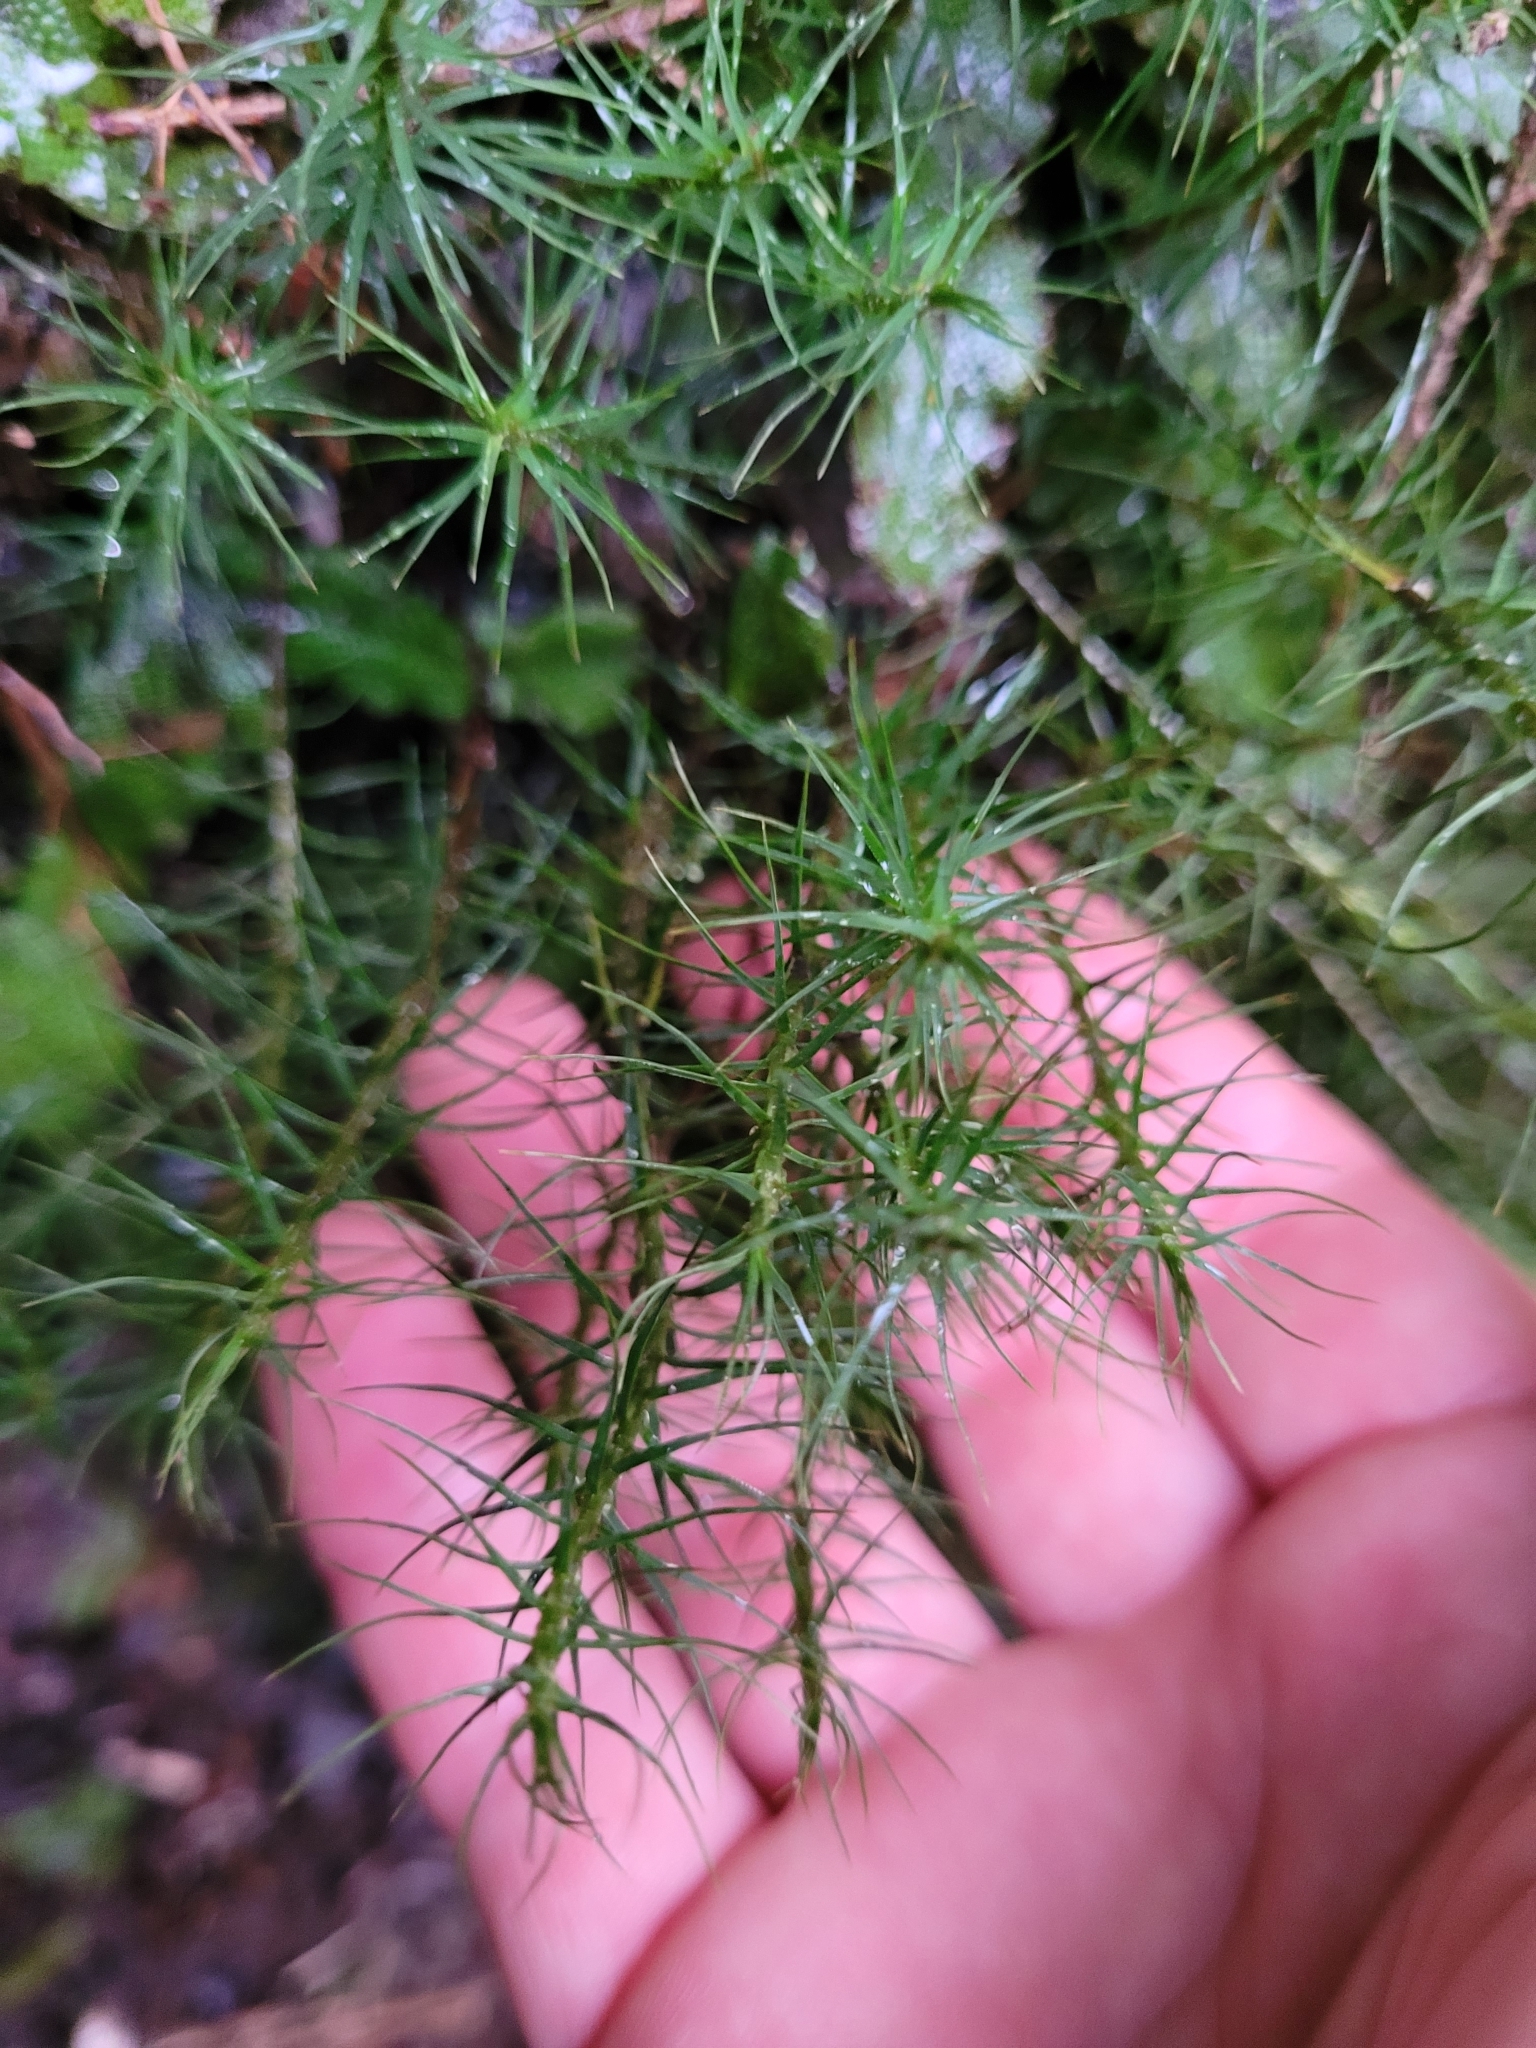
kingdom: Plantae
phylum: Bryophyta
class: Polytrichopsida
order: Polytrichales
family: Polytrichaceae
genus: Polytrichum
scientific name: Polytrichum commune
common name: Common haircap
